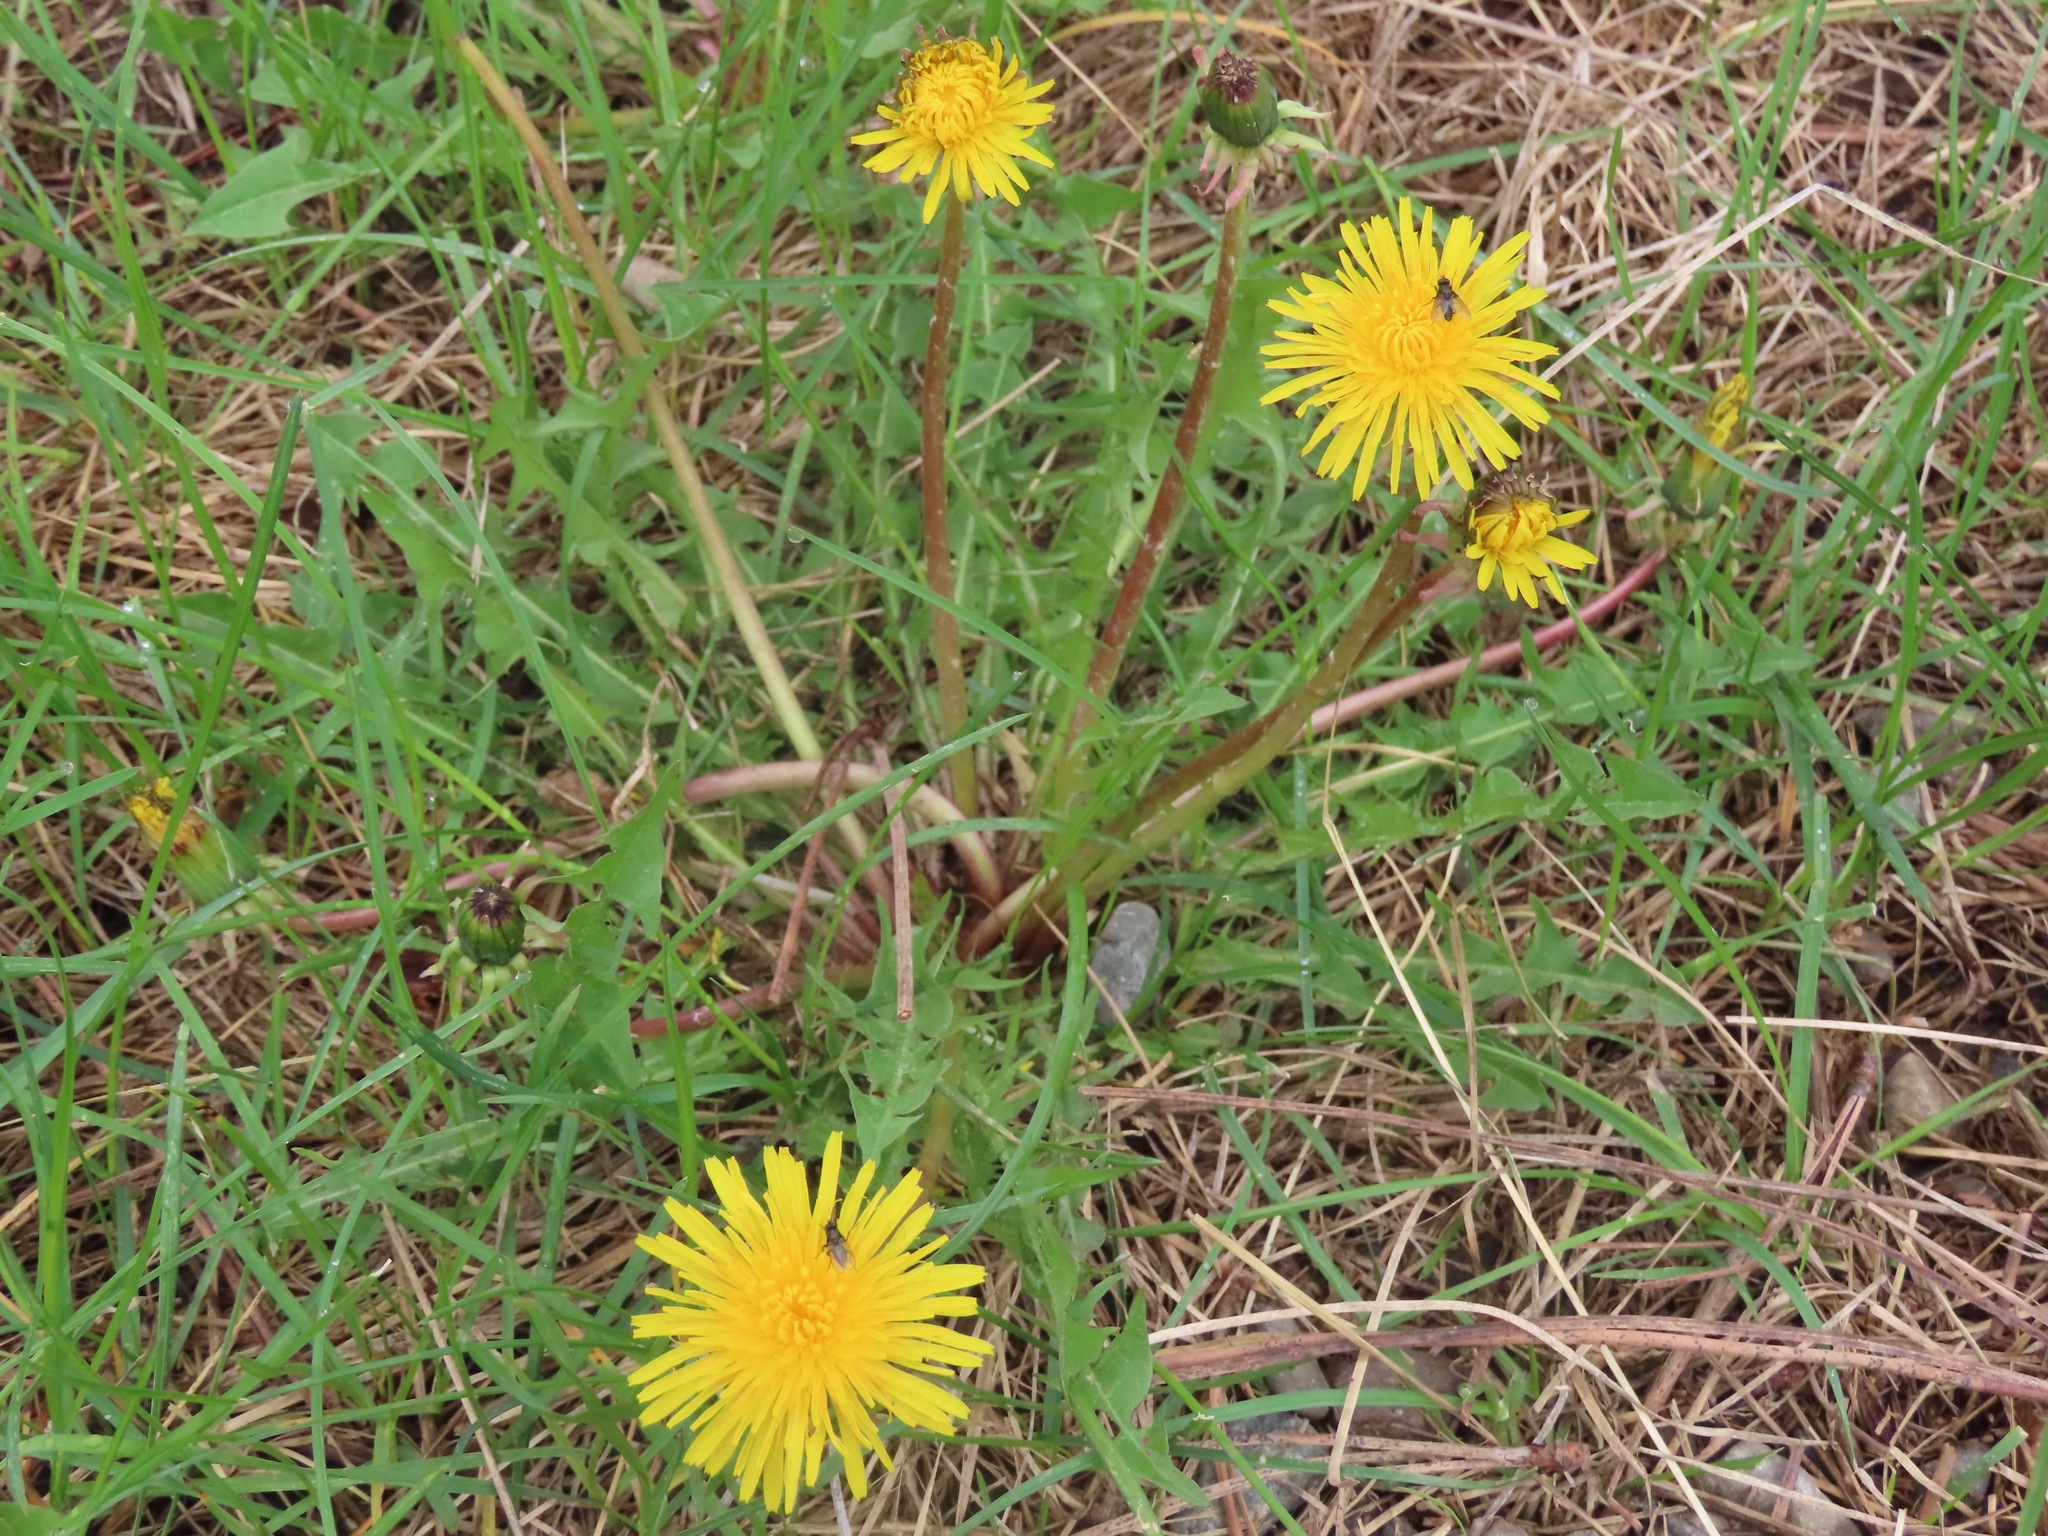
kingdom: Plantae
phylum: Tracheophyta
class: Magnoliopsida
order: Asterales
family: Asteraceae
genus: Taraxacum
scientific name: Taraxacum officinale
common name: Common dandelion
